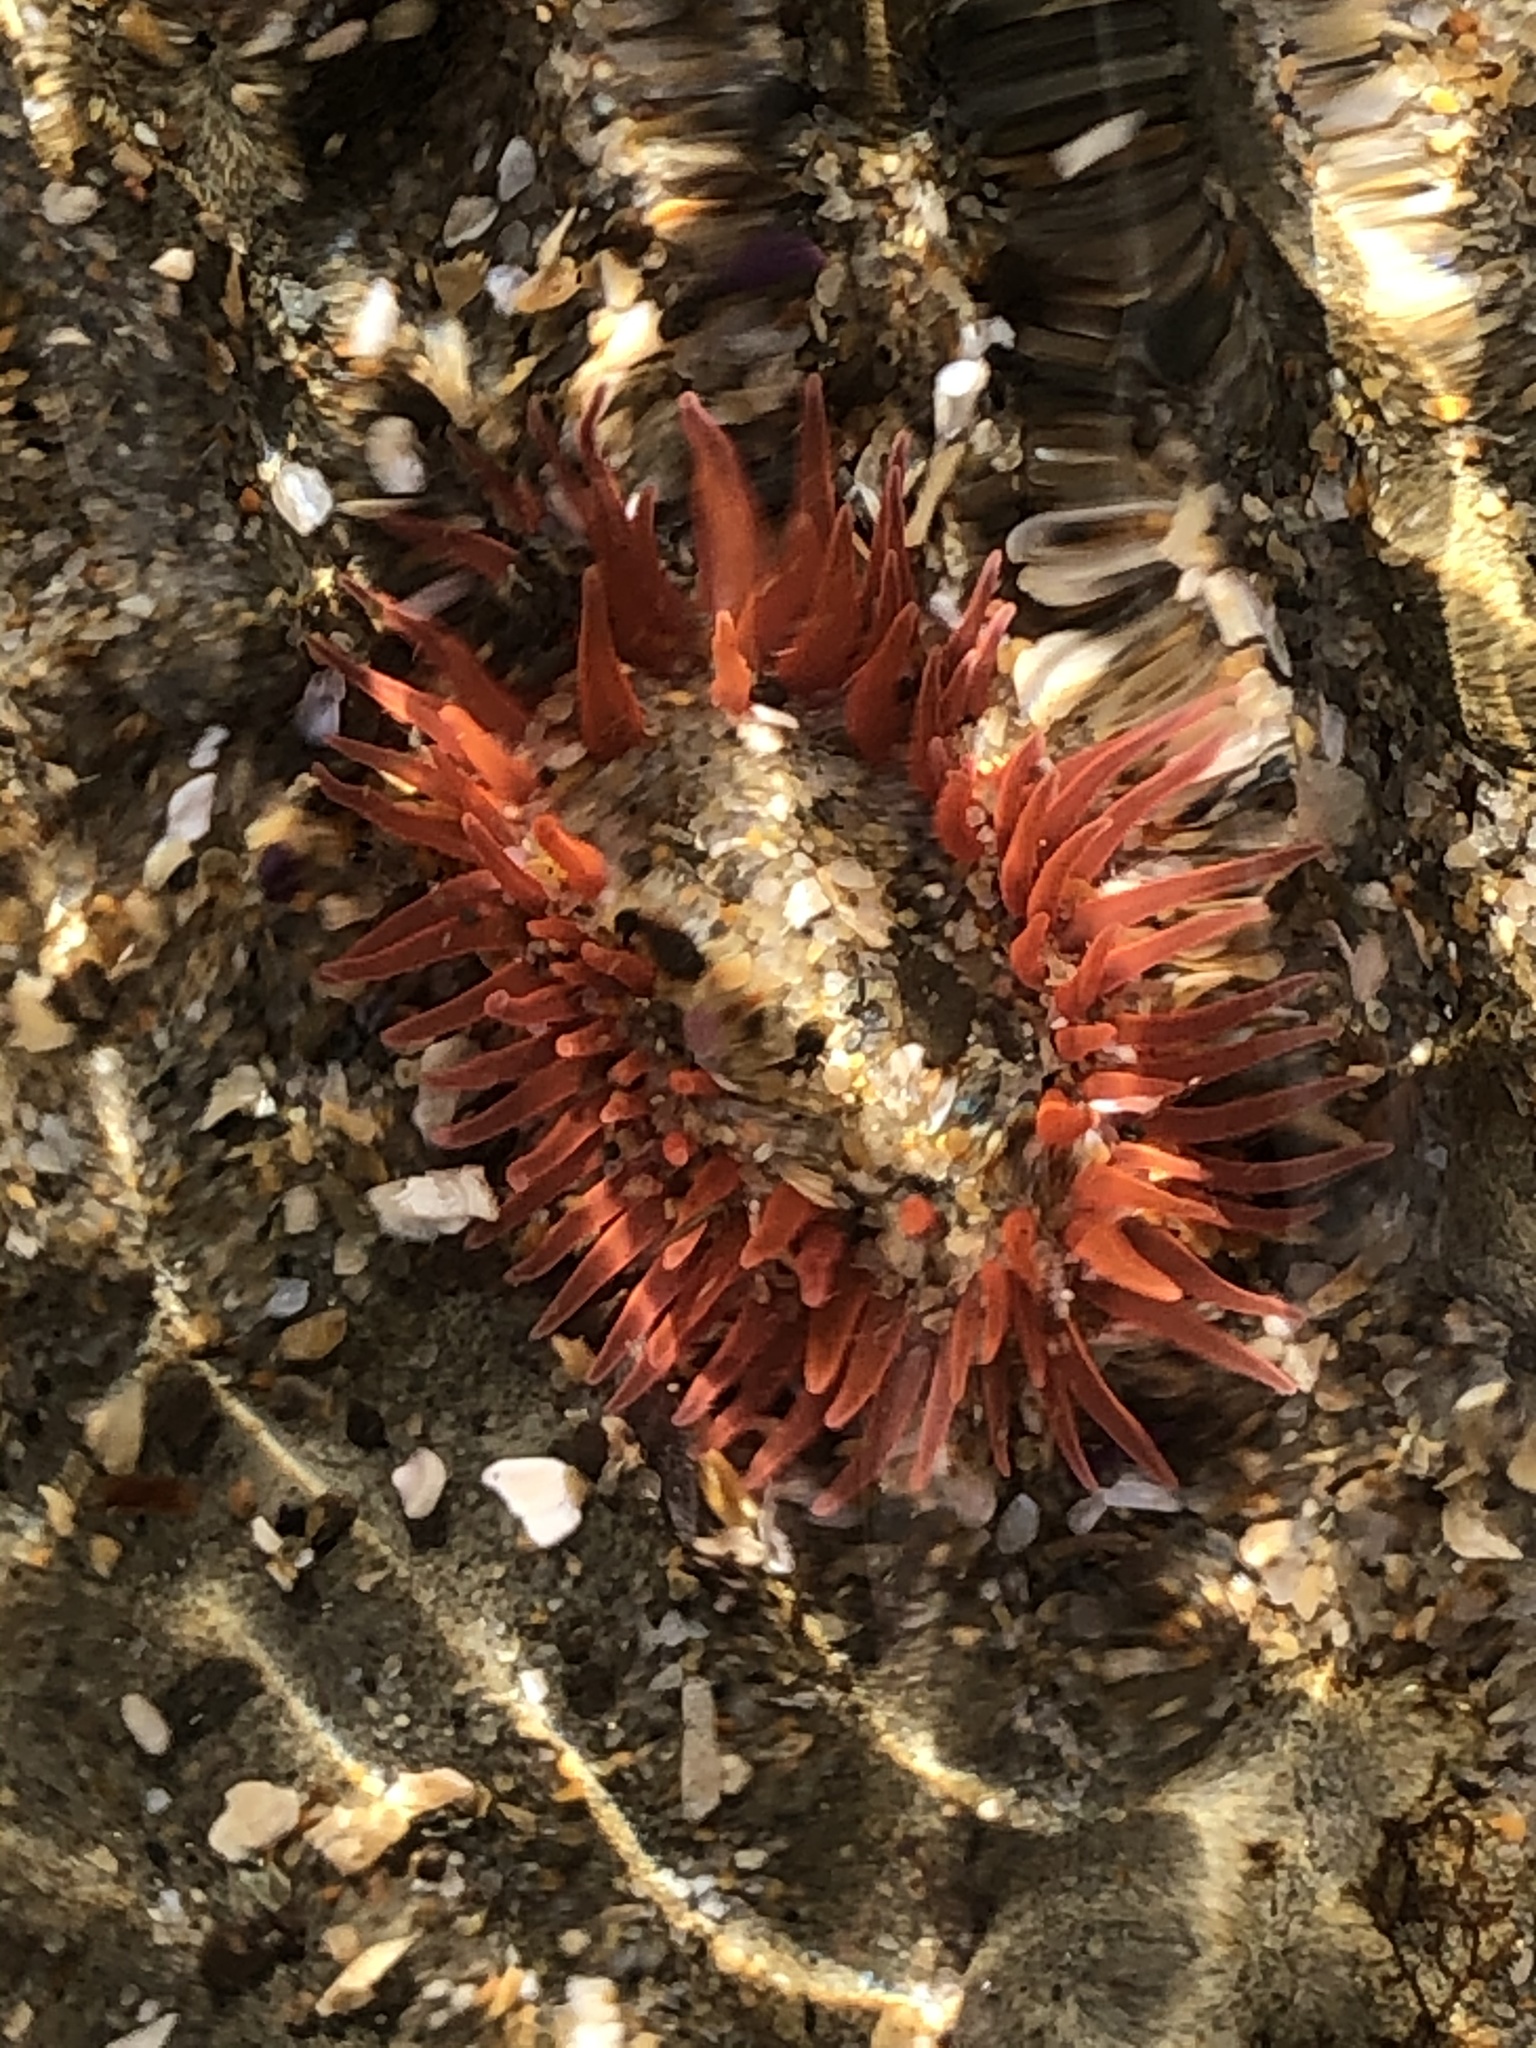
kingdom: Animalia
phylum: Cnidaria
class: Anthozoa
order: Actiniaria
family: Actiniidae
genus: Anthopleura
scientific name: Anthopleura artemisia
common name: Buried sea anemone
